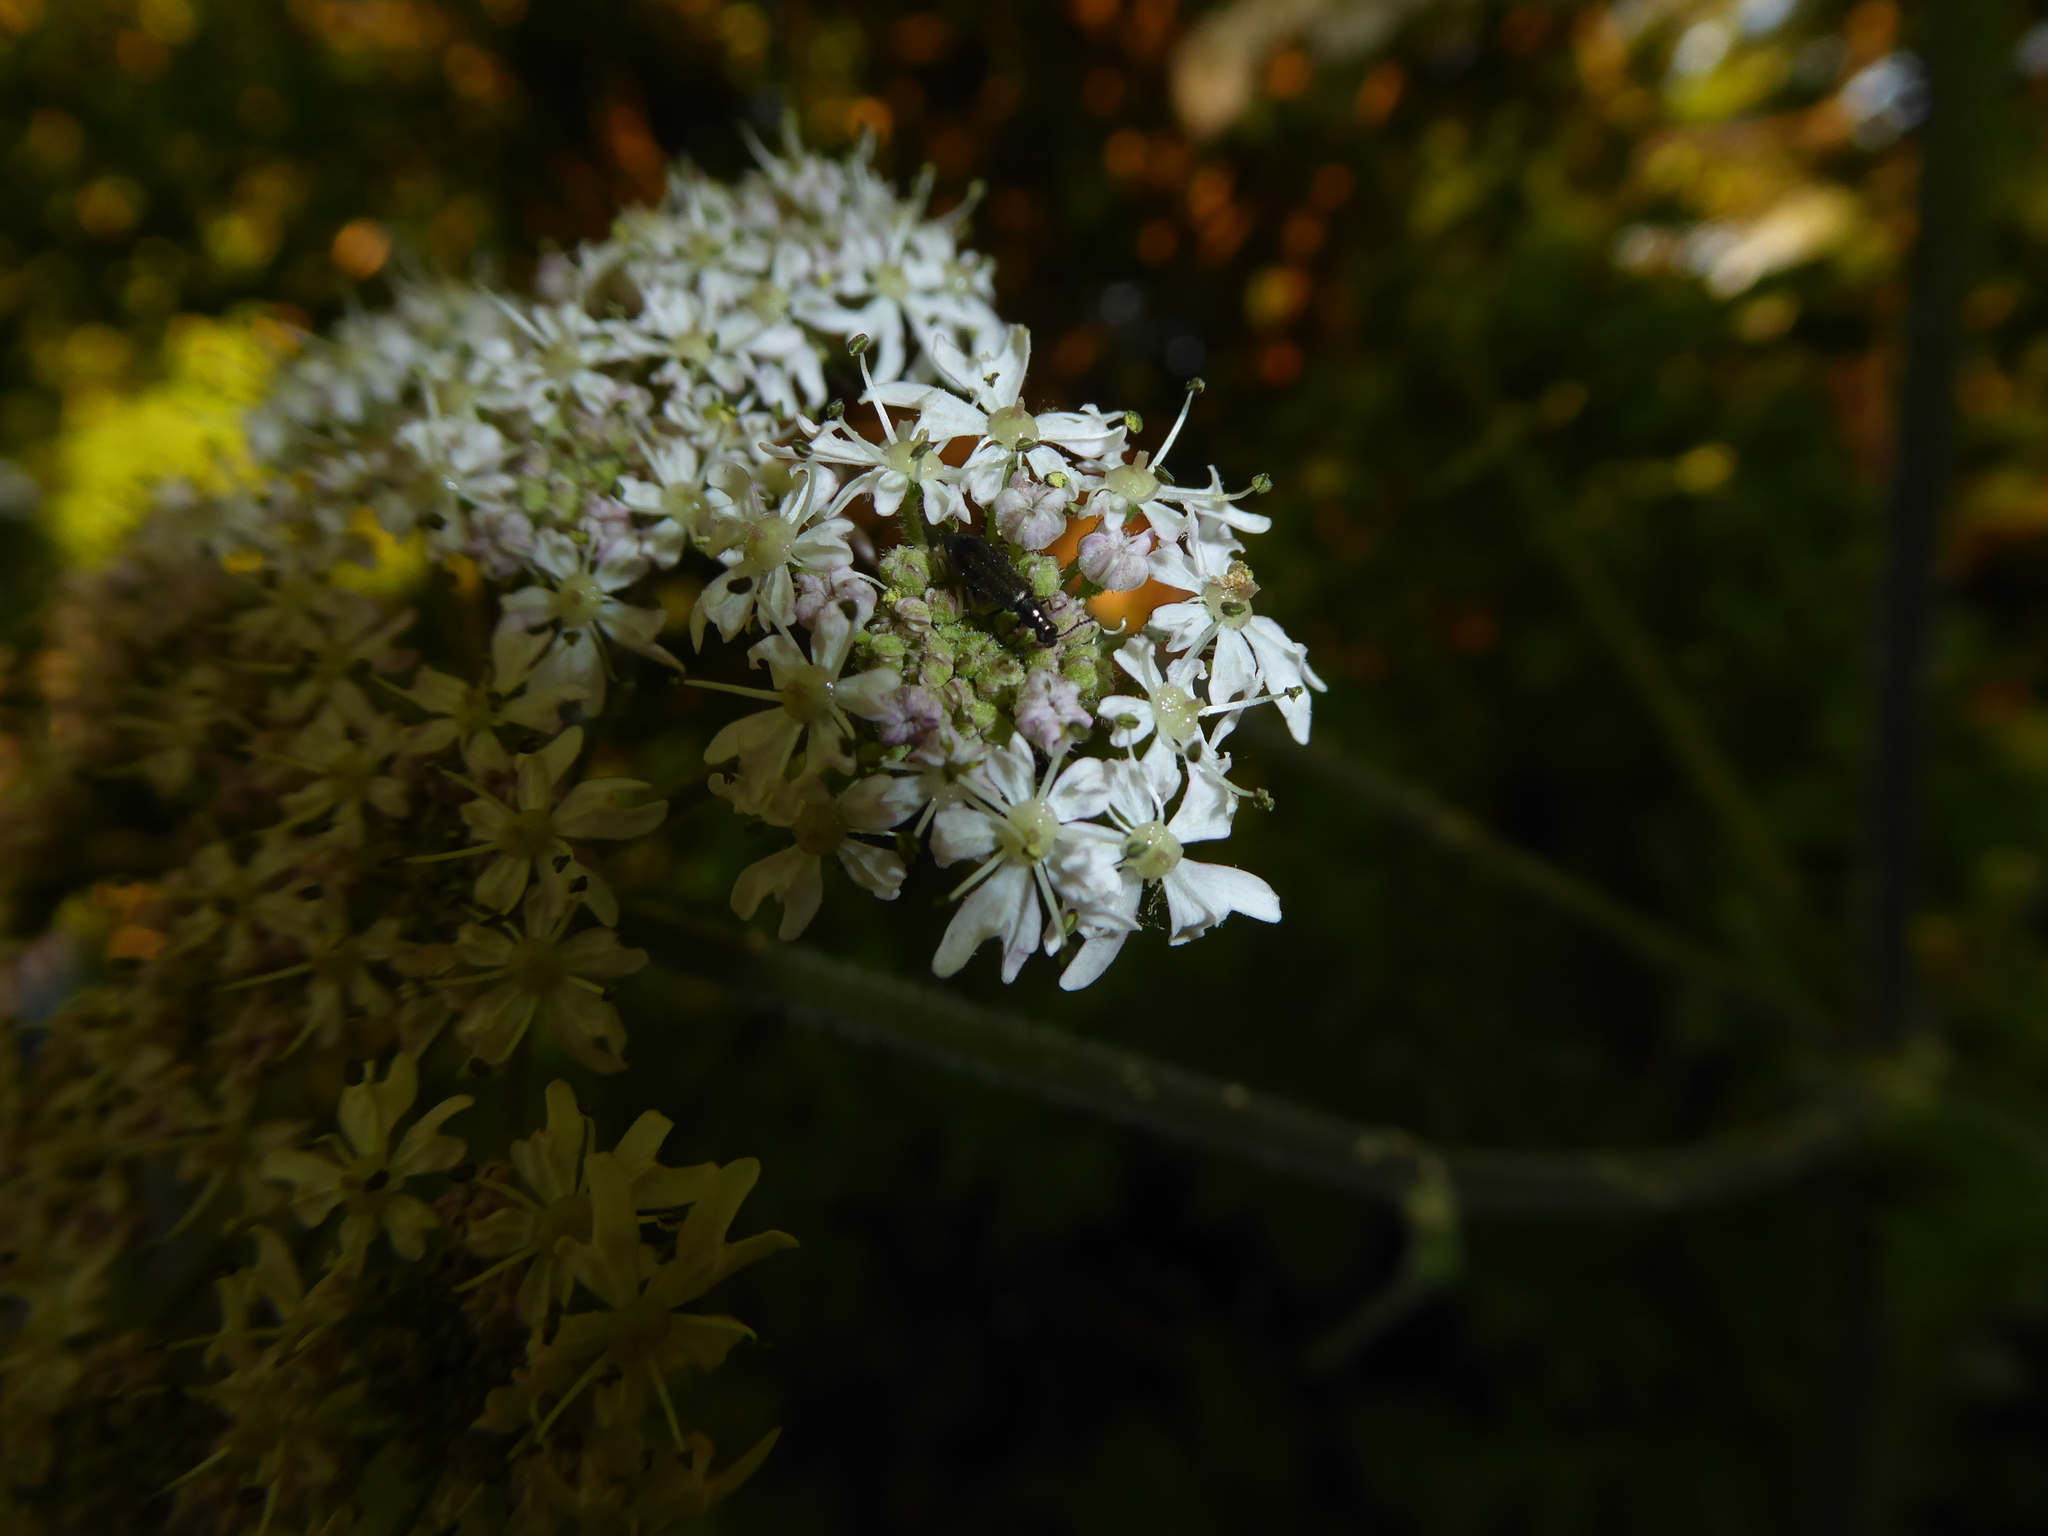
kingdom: Animalia
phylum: Arthropoda
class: Insecta
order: Coleoptera
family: Cerambycidae
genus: Grammoptera
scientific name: Grammoptera ruficornis
